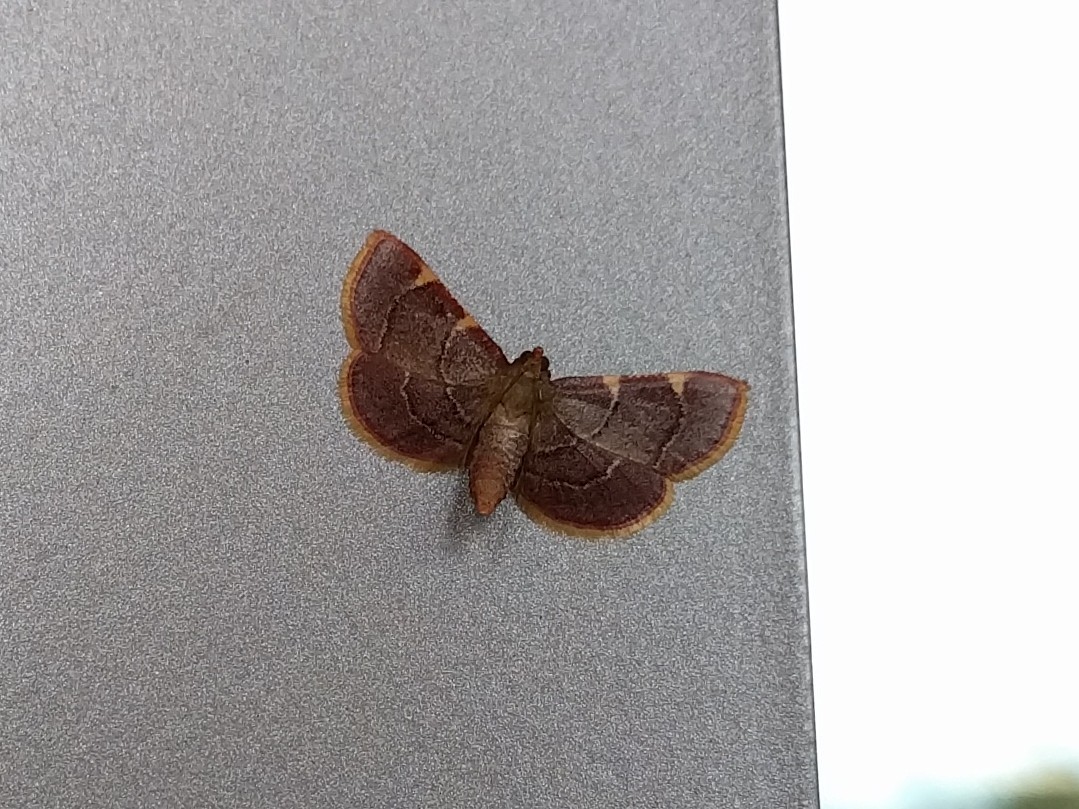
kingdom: Animalia
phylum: Arthropoda
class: Insecta
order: Lepidoptera
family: Pyralidae
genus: Hypsopygia
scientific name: Hypsopygia olinalis
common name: Yellow-fringed dolichomia moth
